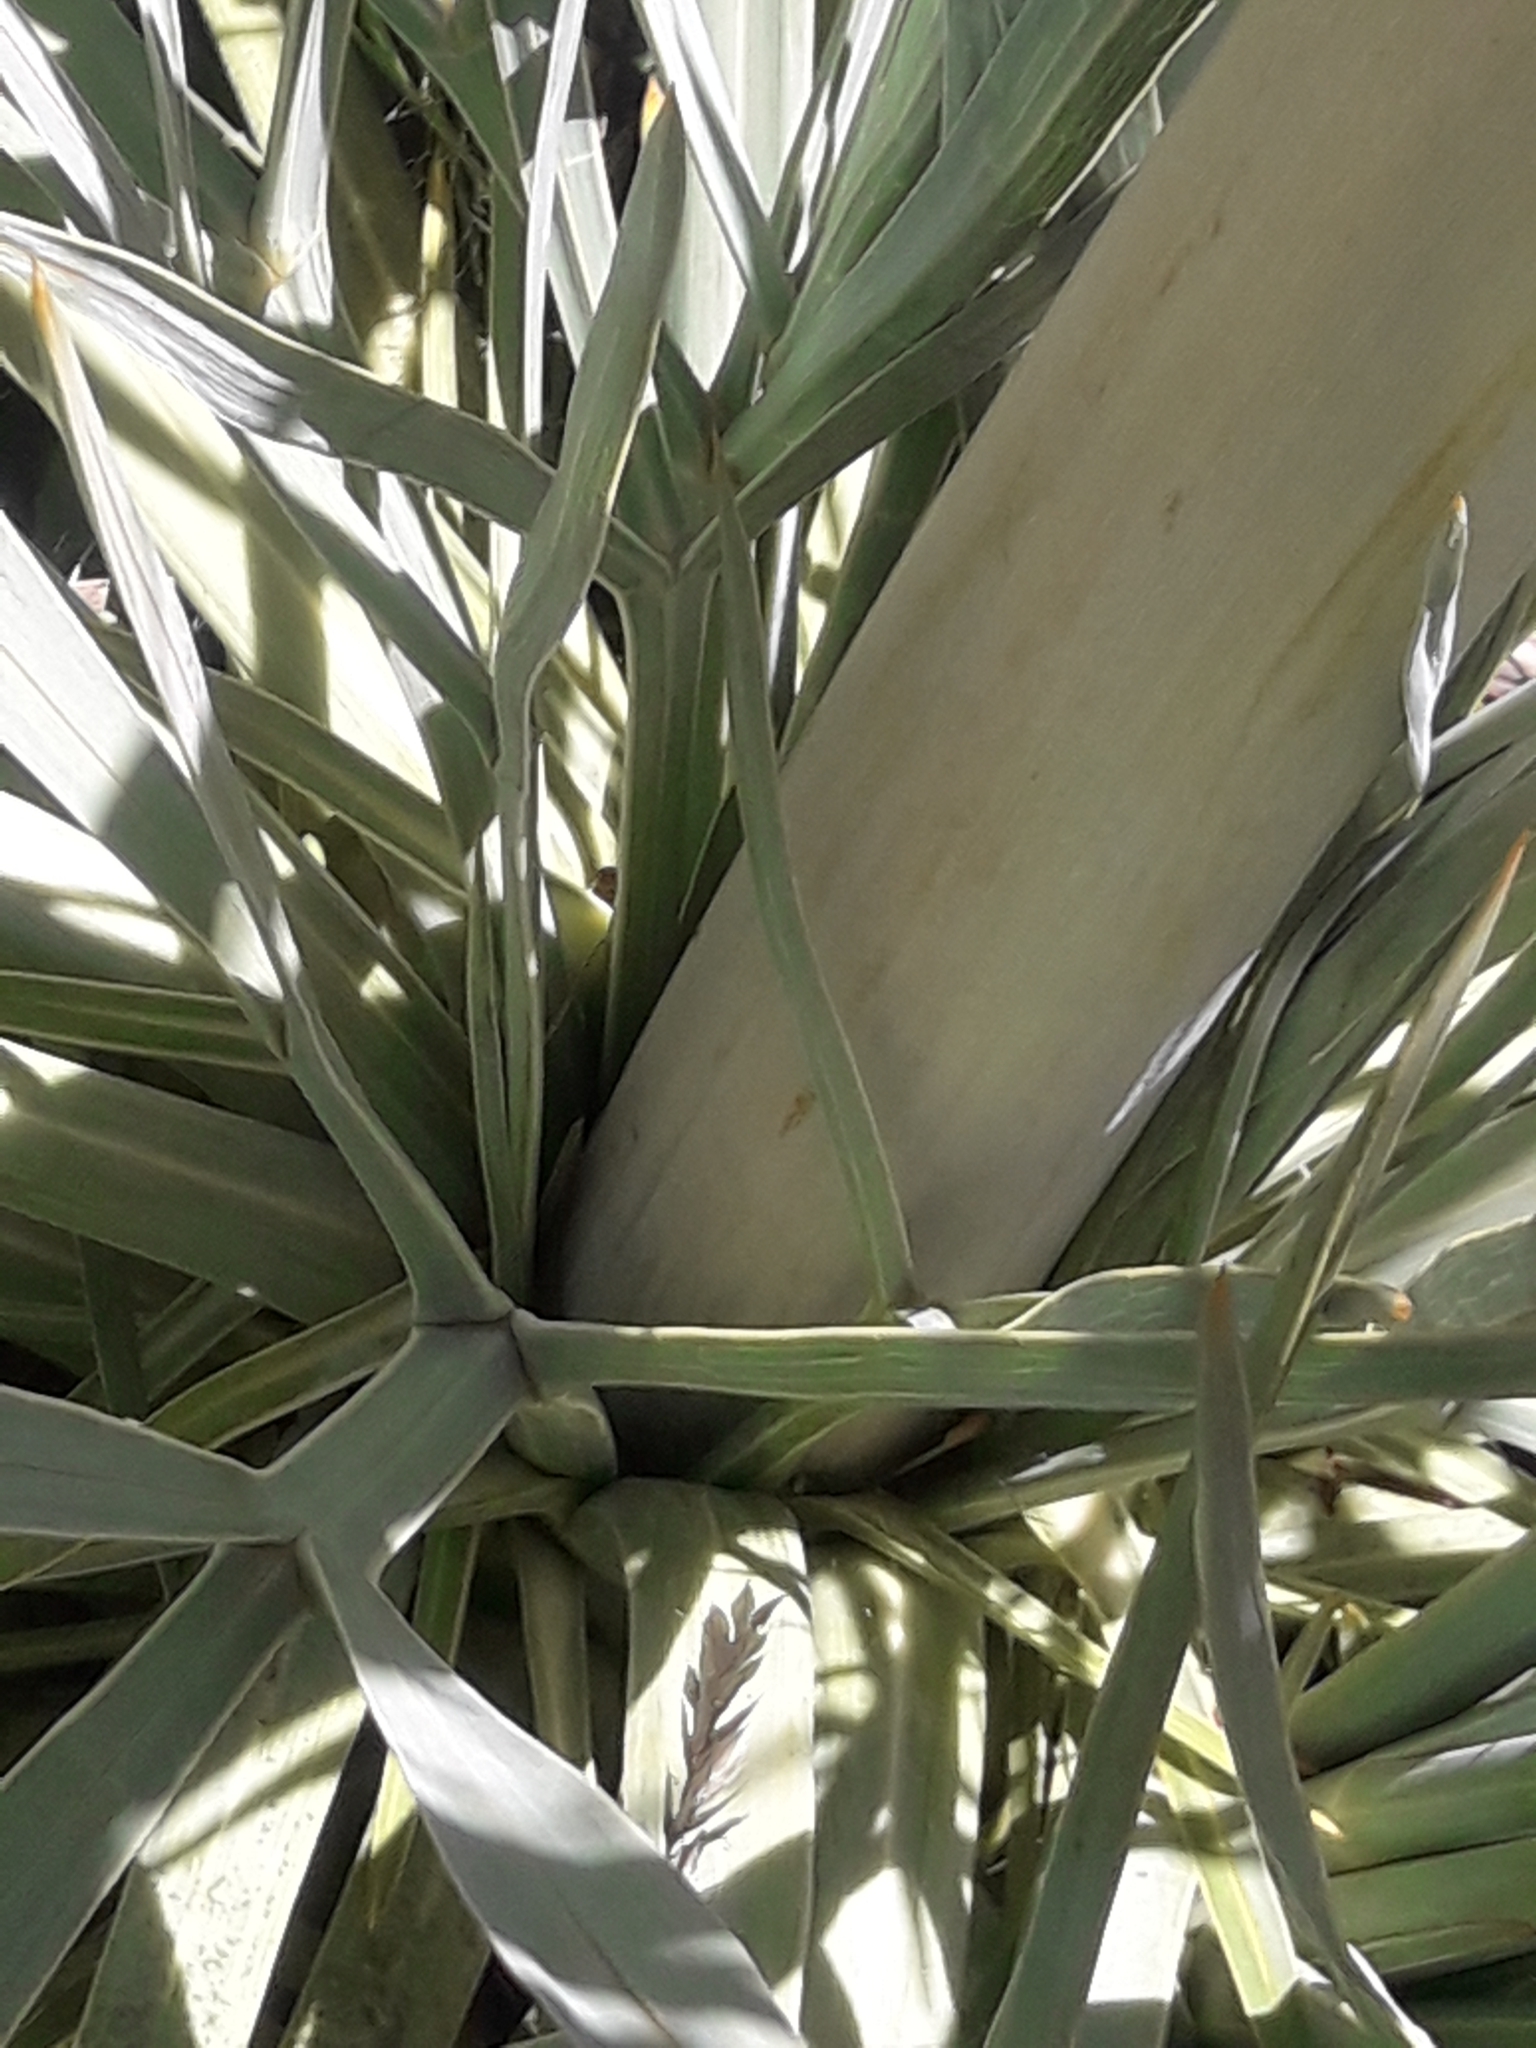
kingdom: Plantae
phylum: Tracheophyta
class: Magnoliopsida
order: Apiales
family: Apiaceae
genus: Aciphylla
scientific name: Aciphylla scott-thomsonii
